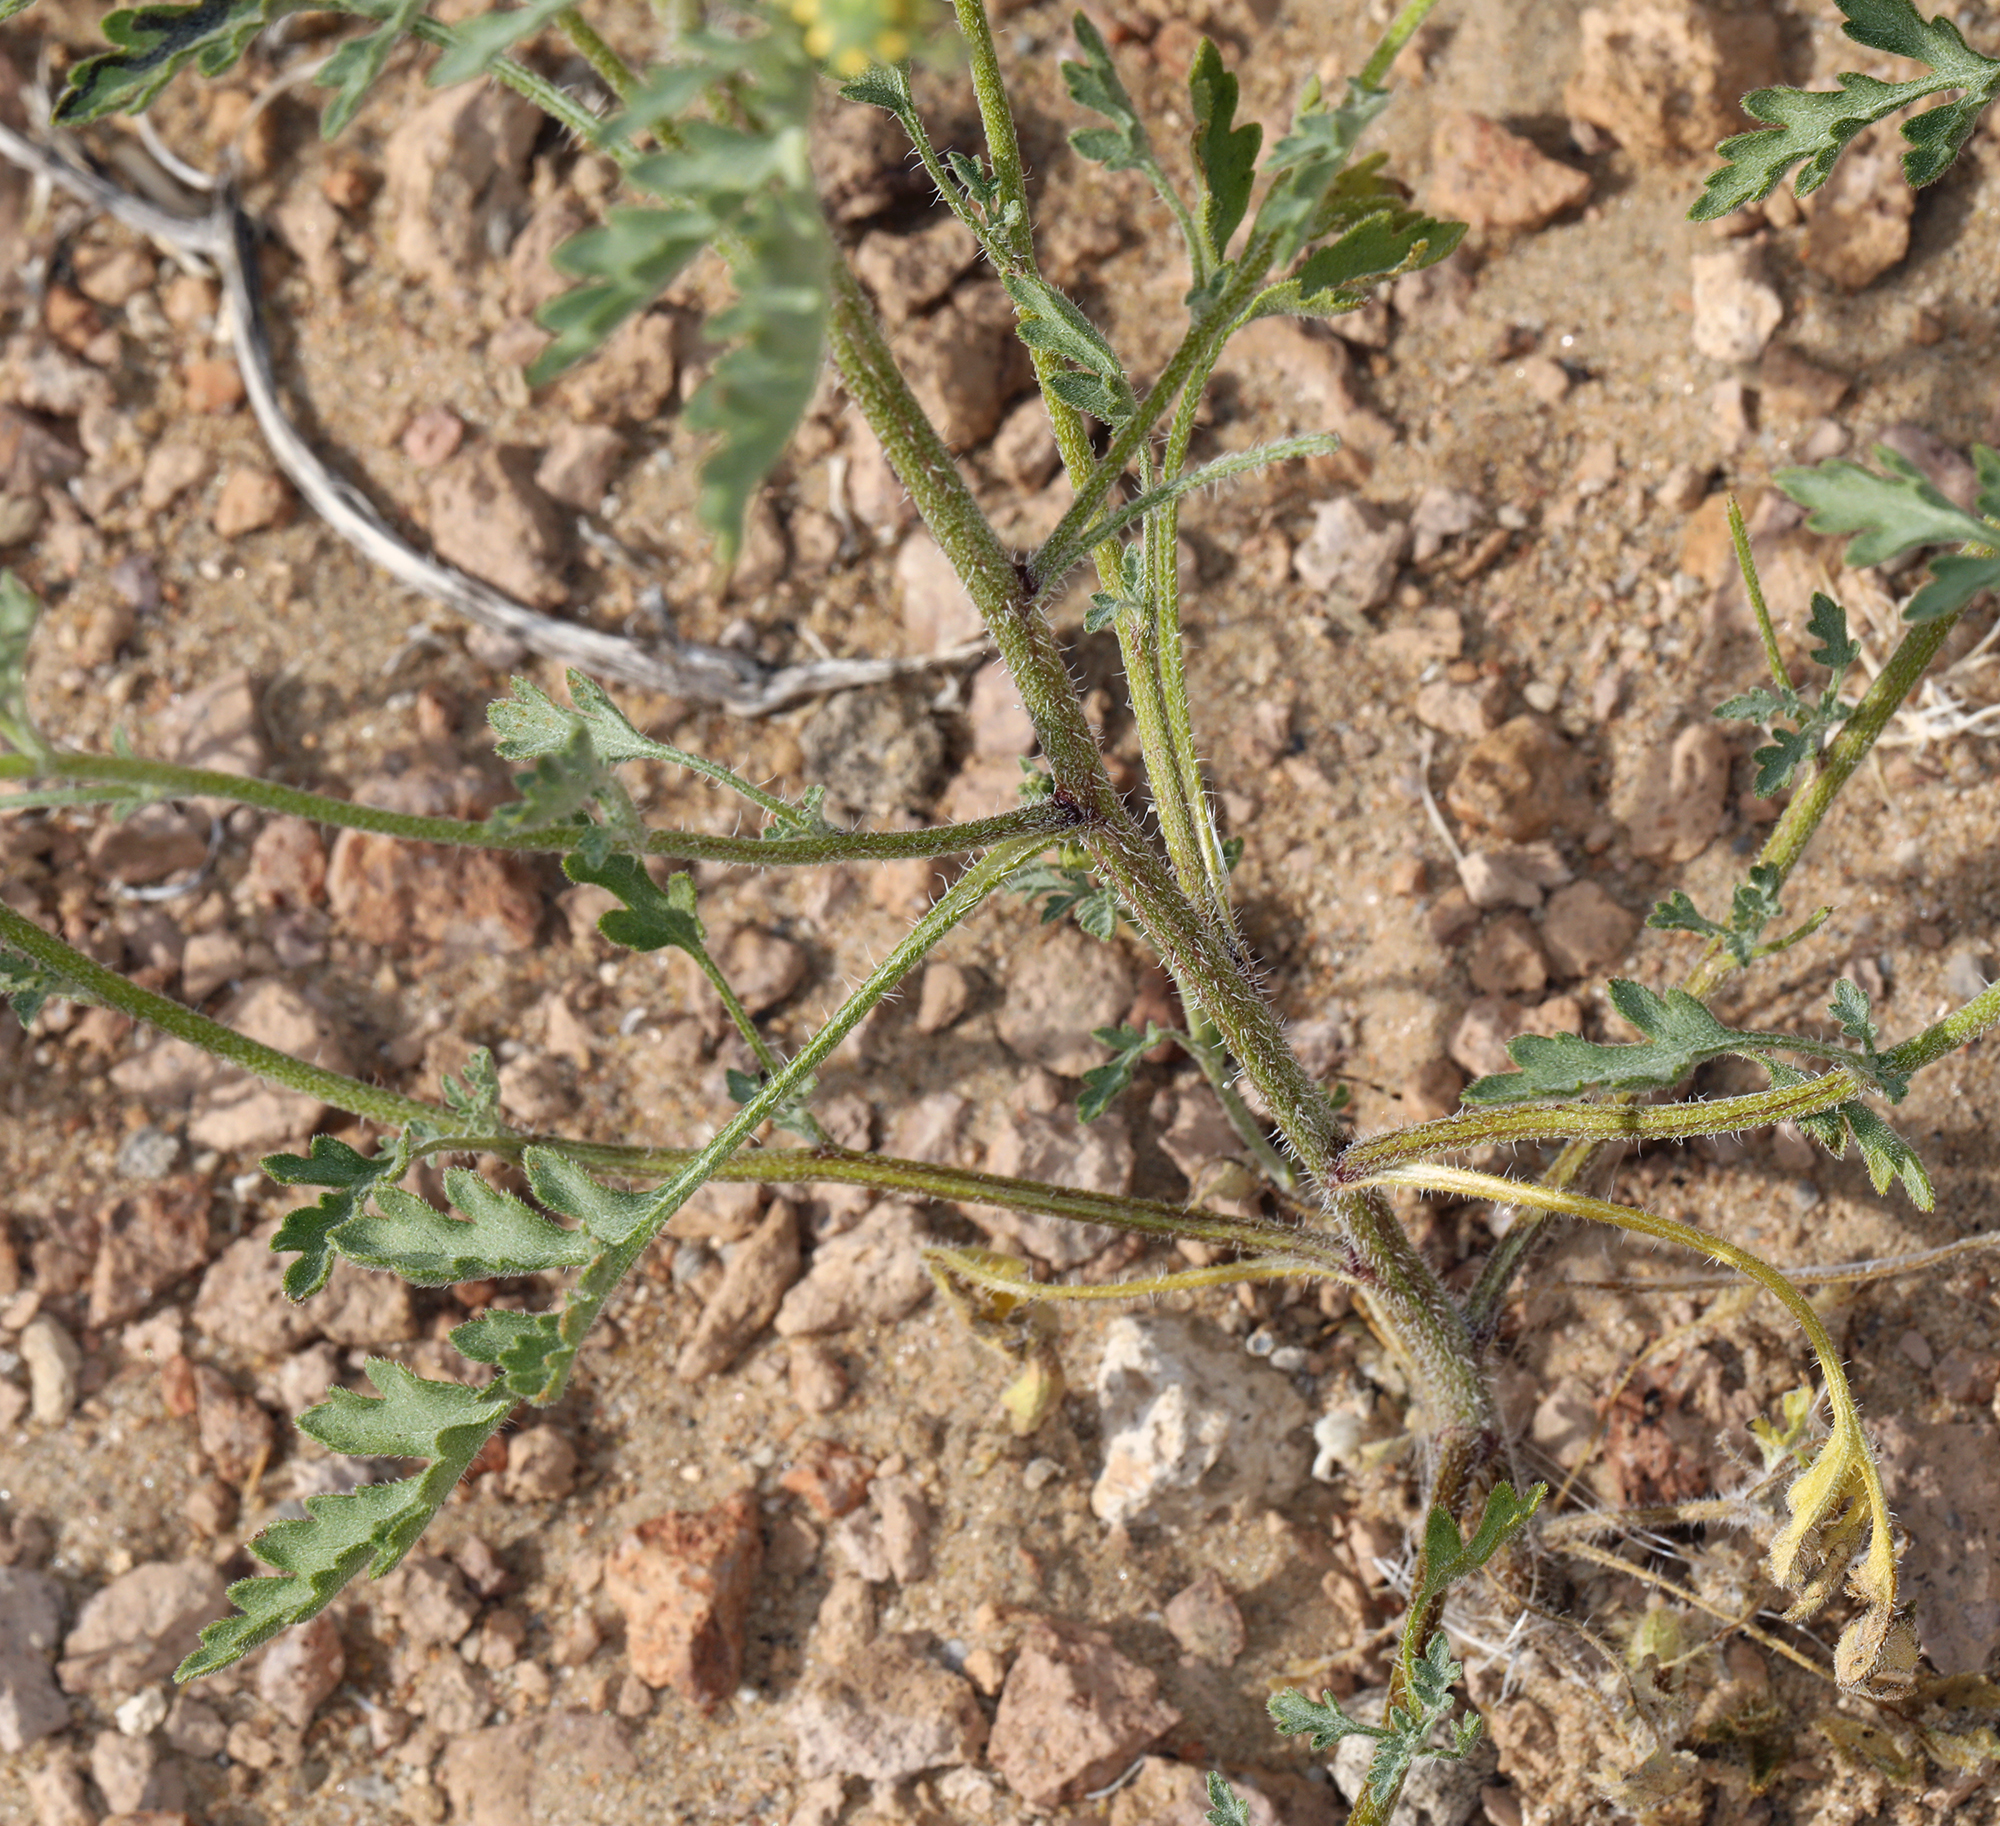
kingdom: Plantae
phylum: Tracheophyta
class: Magnoliopsida
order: Asterales
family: Asteraceae
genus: Ambrosia
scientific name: Ambrosia acanthicarpa
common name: Hooker's bur ragweed
